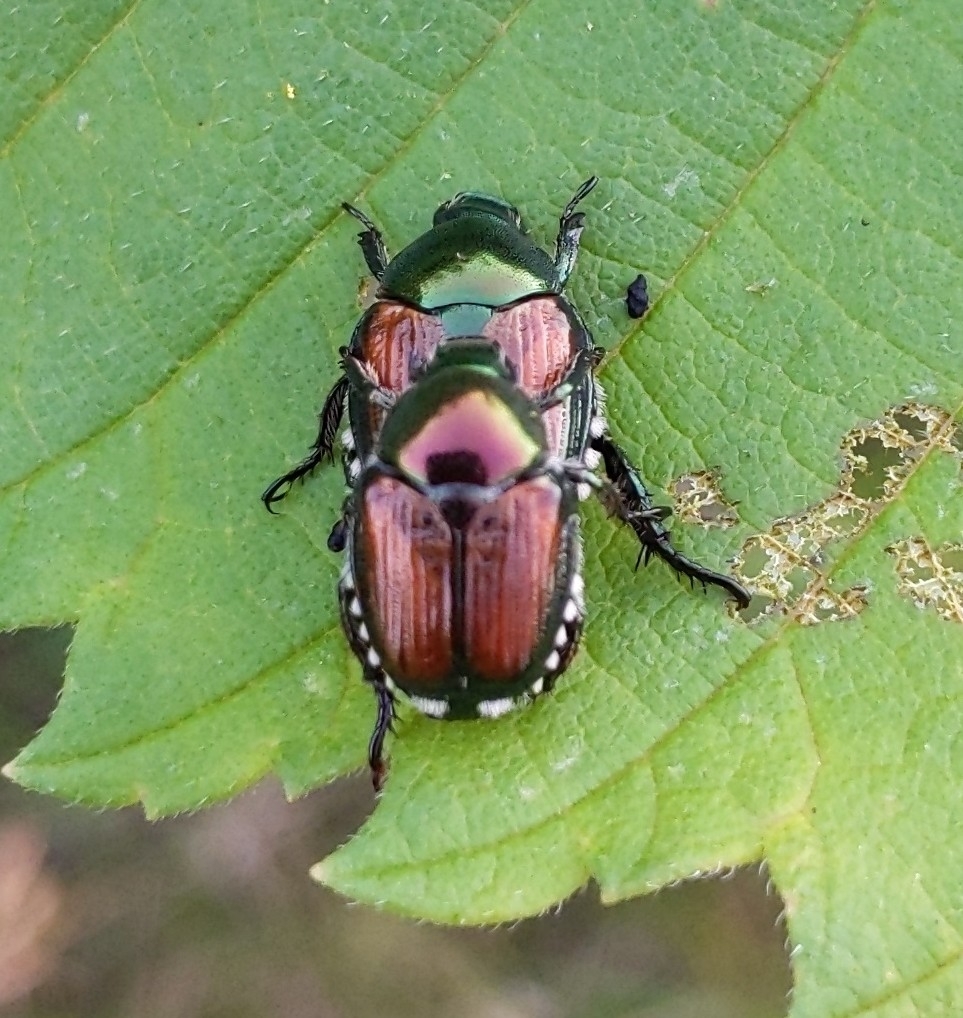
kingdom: Animalia
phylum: Arthropoda
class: Insecta
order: Coleoptera
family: Scarabaeidae
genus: Popillia
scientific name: Popillia japonica
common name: Japanese beetle
